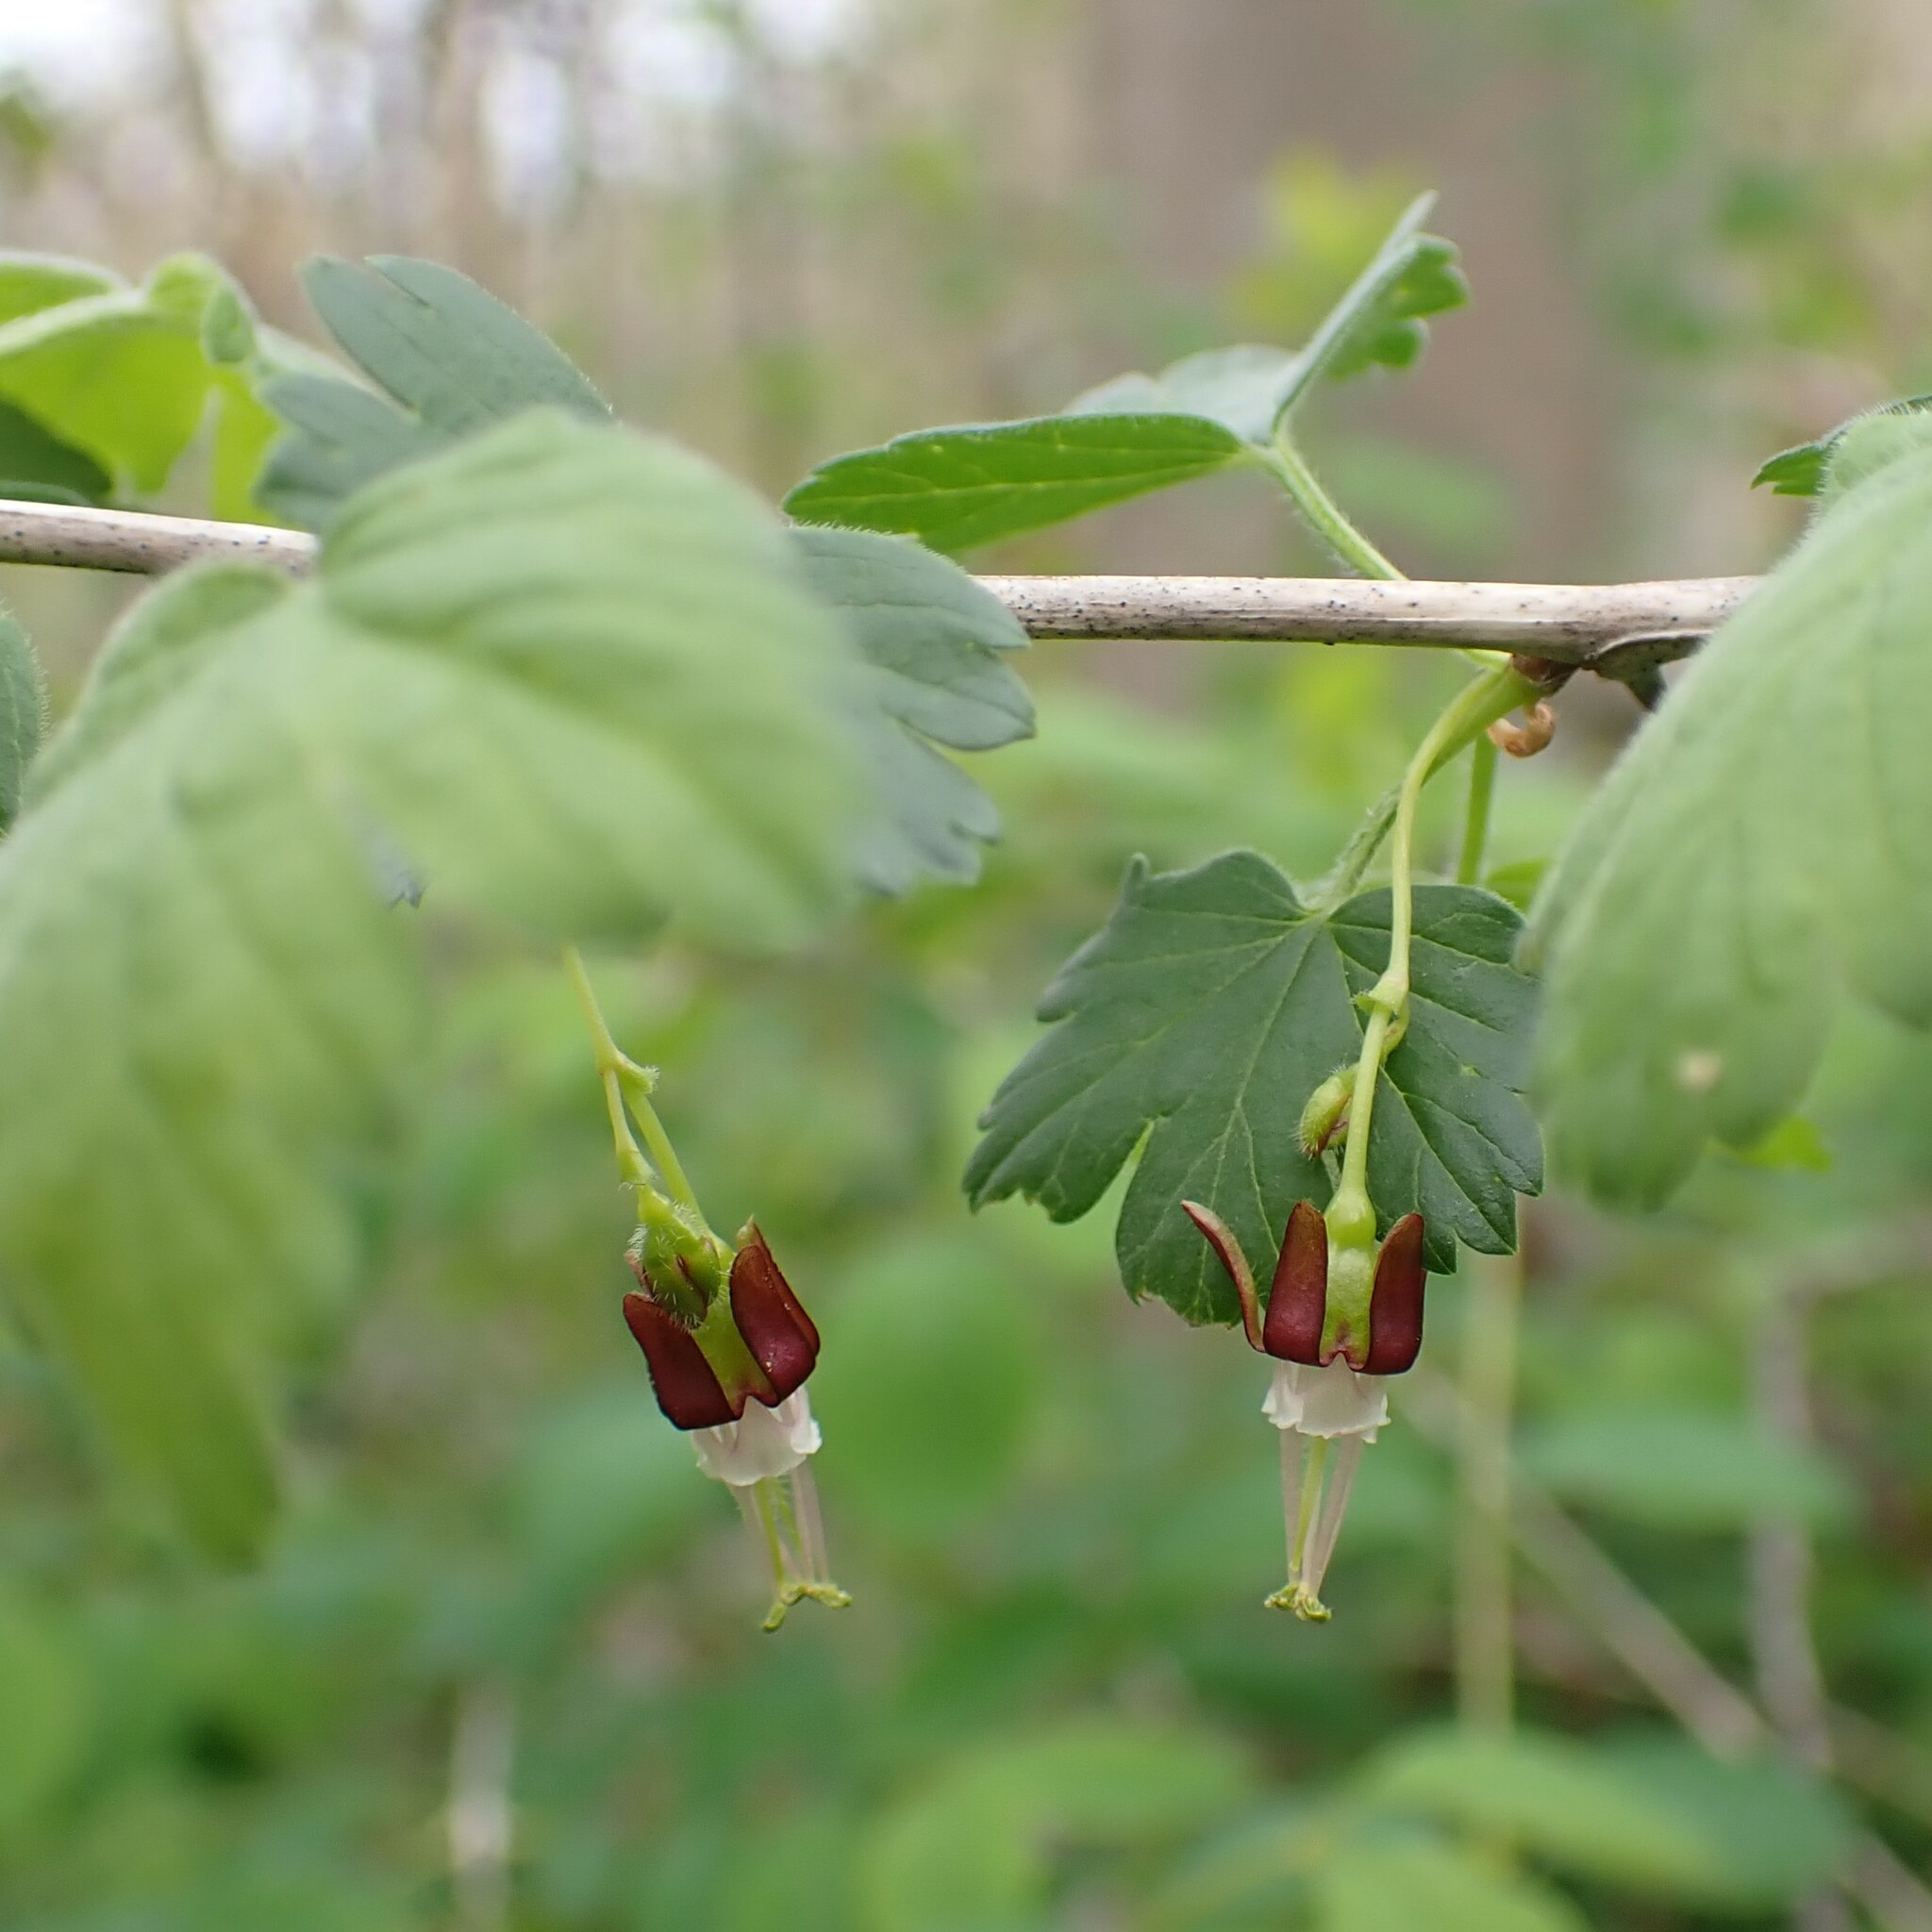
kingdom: Plantae
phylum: Tracheophyta
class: Magnoliopsida
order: Saxifragales
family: Grossulariaceae
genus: Ribes
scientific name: Ribes divaricatum
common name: Wild black gooseberry
